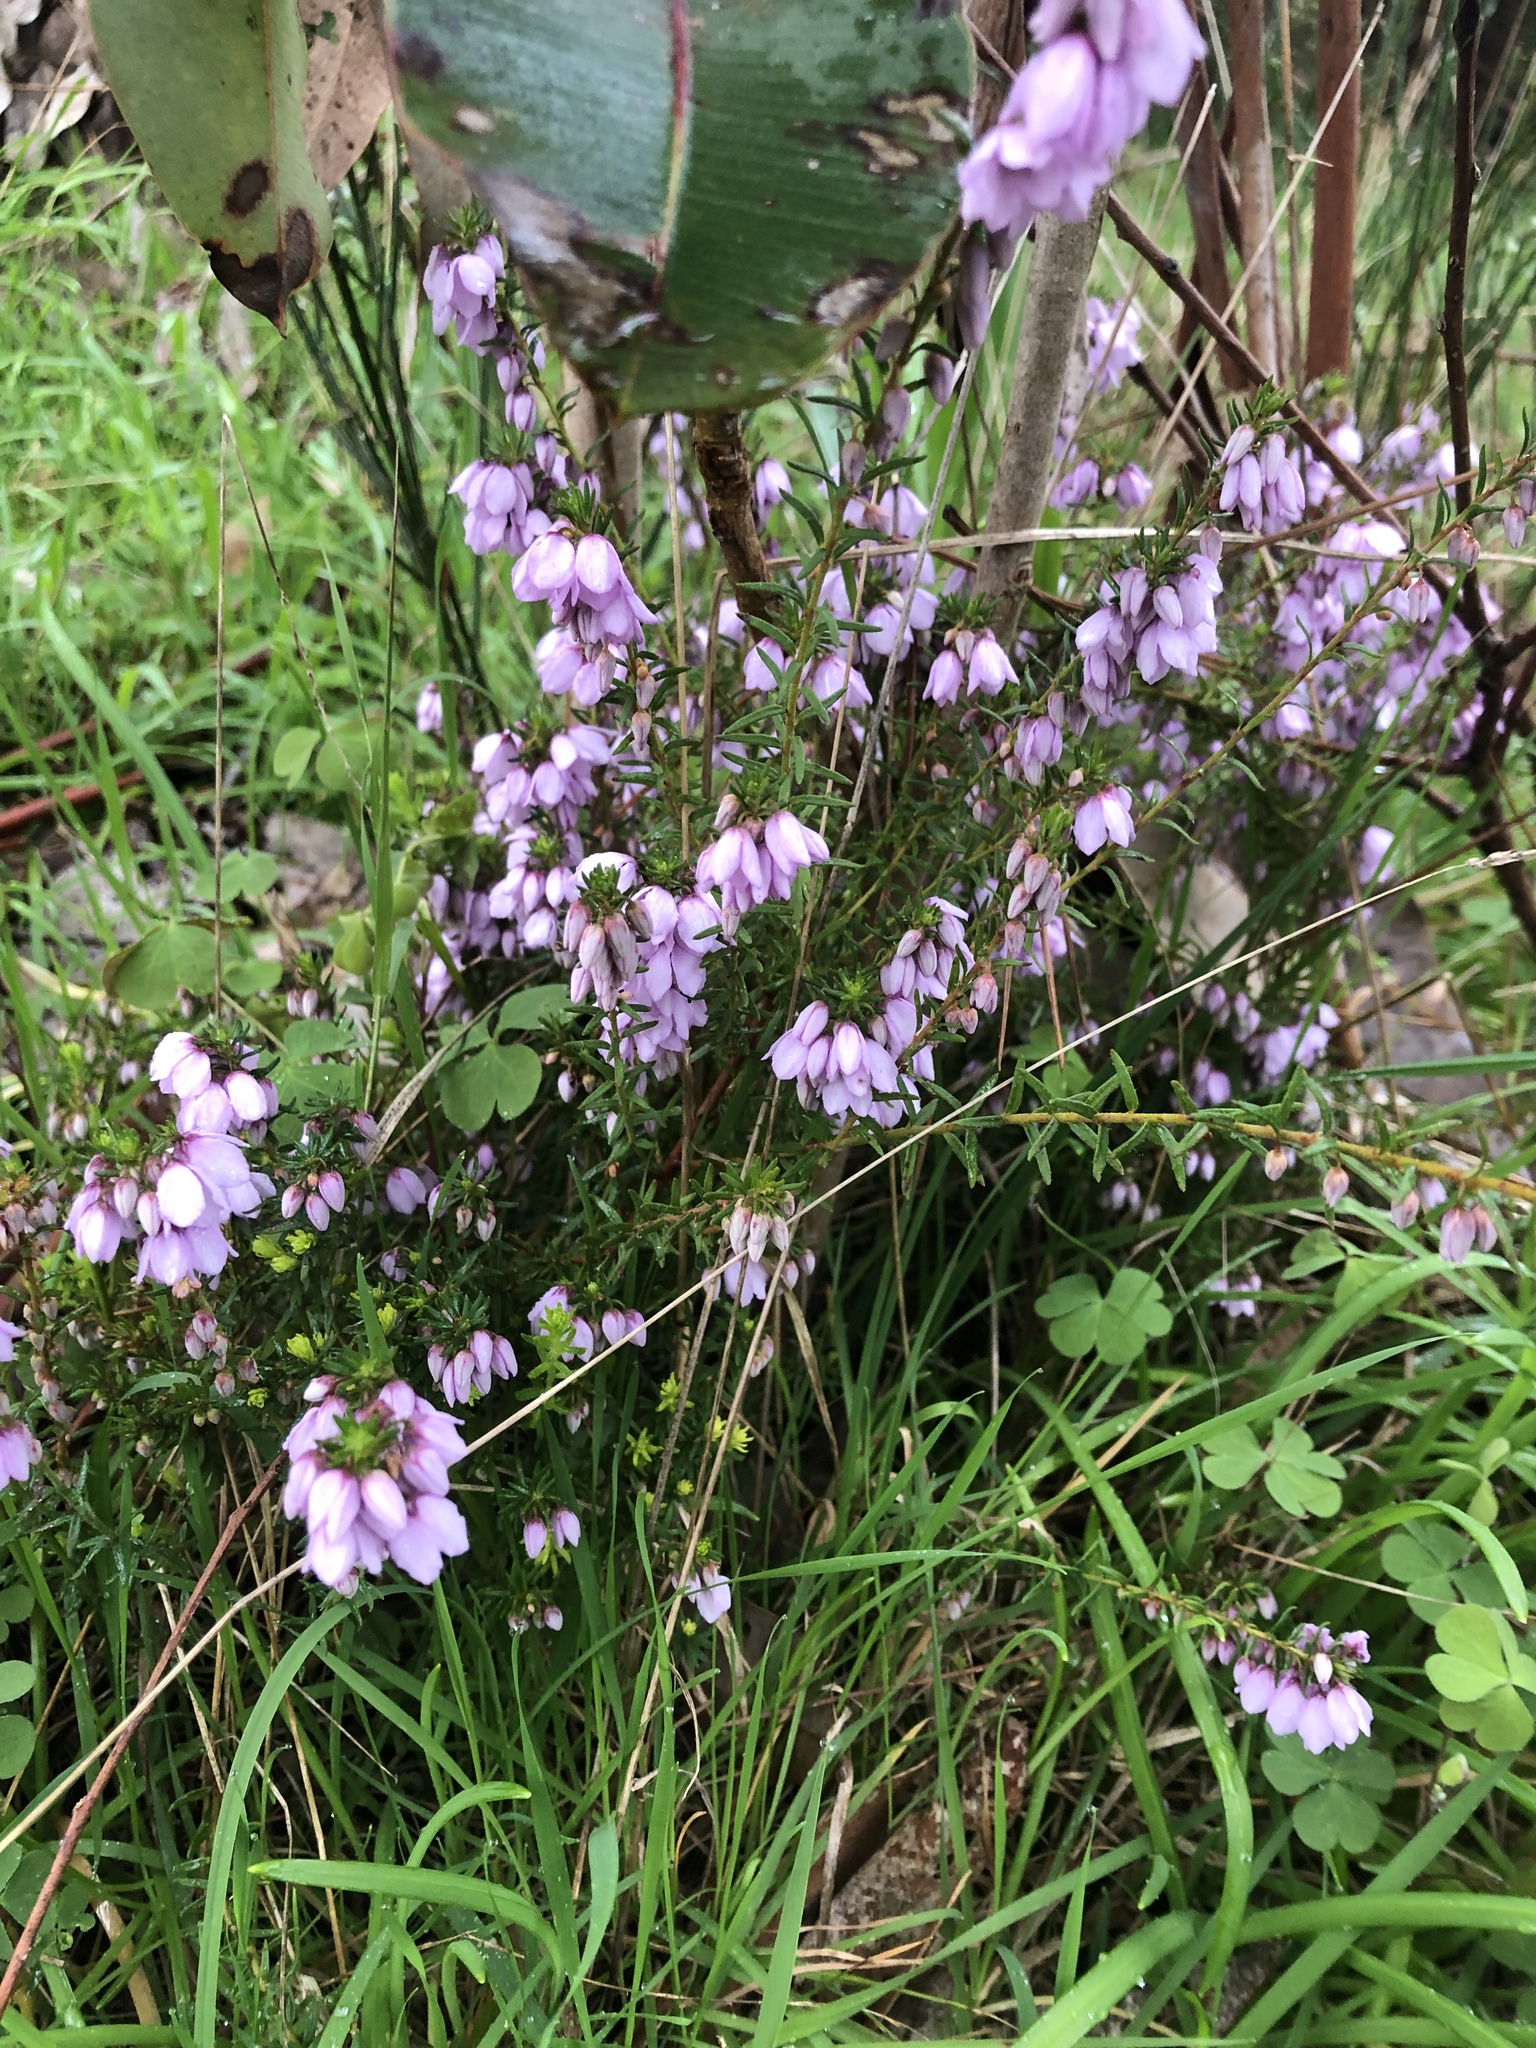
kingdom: Plantae
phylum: Tracheophyta
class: Magnoliopsida
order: Oxalidales
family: Elaeocarpaceae
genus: Tetratheca
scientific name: Tetratheca pilosa
